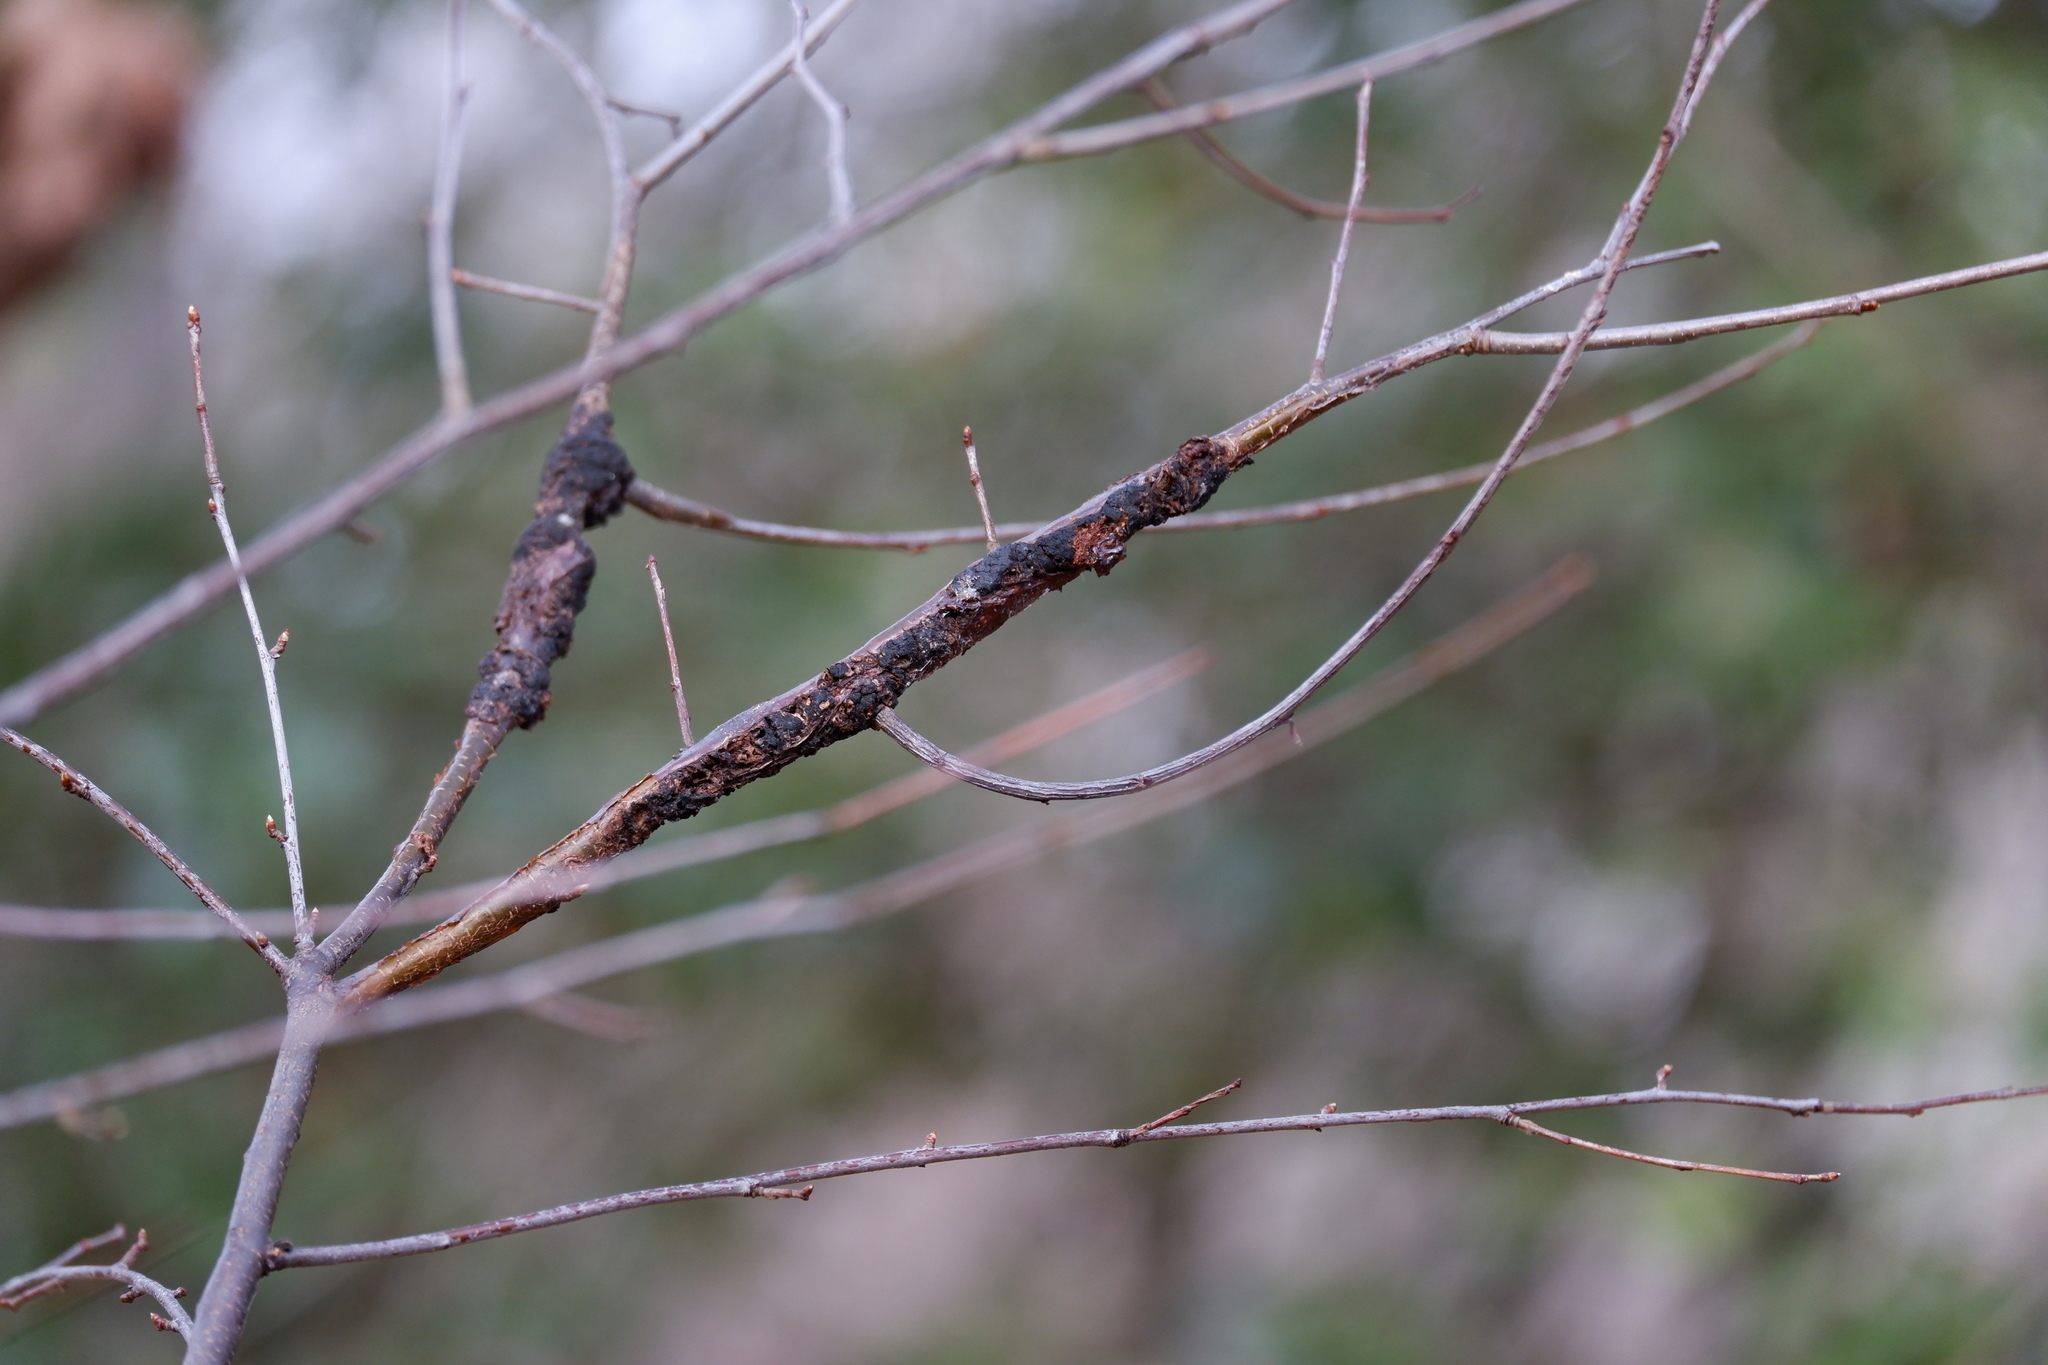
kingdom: Fungi
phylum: Ascomycota
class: Dothideomycetes
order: Venturiales
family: Venturiaceae
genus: Apiosporina
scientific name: Apiosporina morbosa
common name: Black knot
